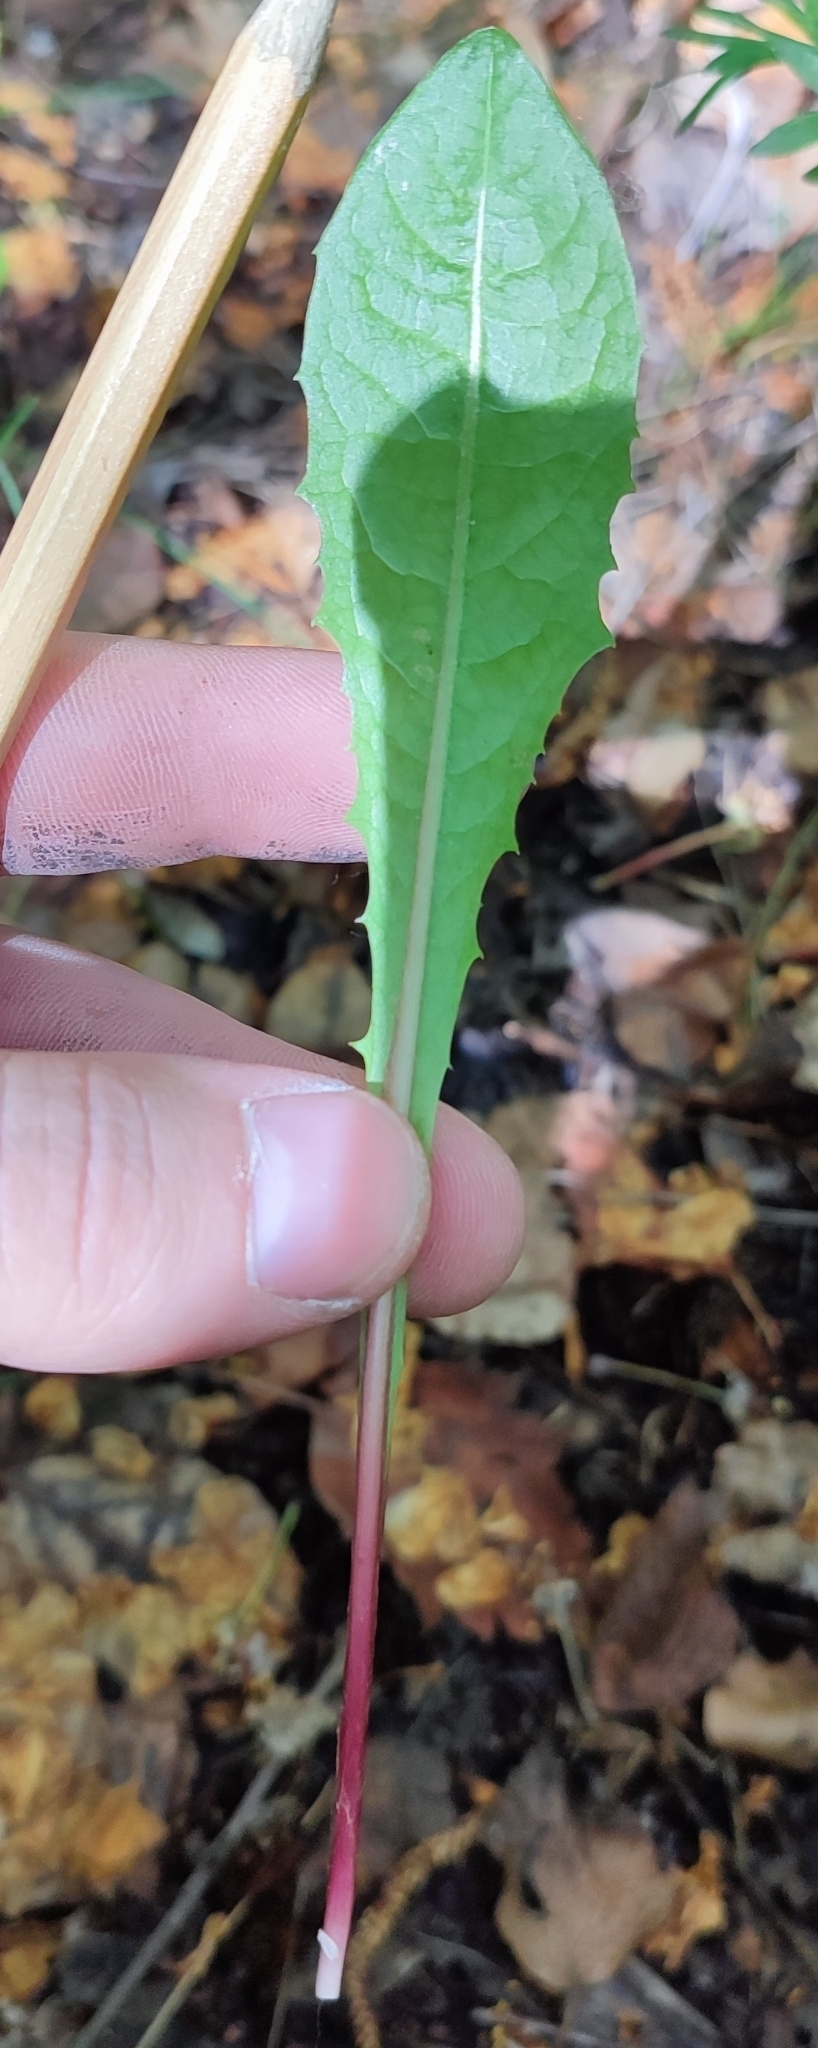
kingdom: Plantae
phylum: Tracheophyta
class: Magnoliopsida
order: Asterales
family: Asteraceae
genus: Taraxacum
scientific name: Taraxacum officinale
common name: Common dandelion
